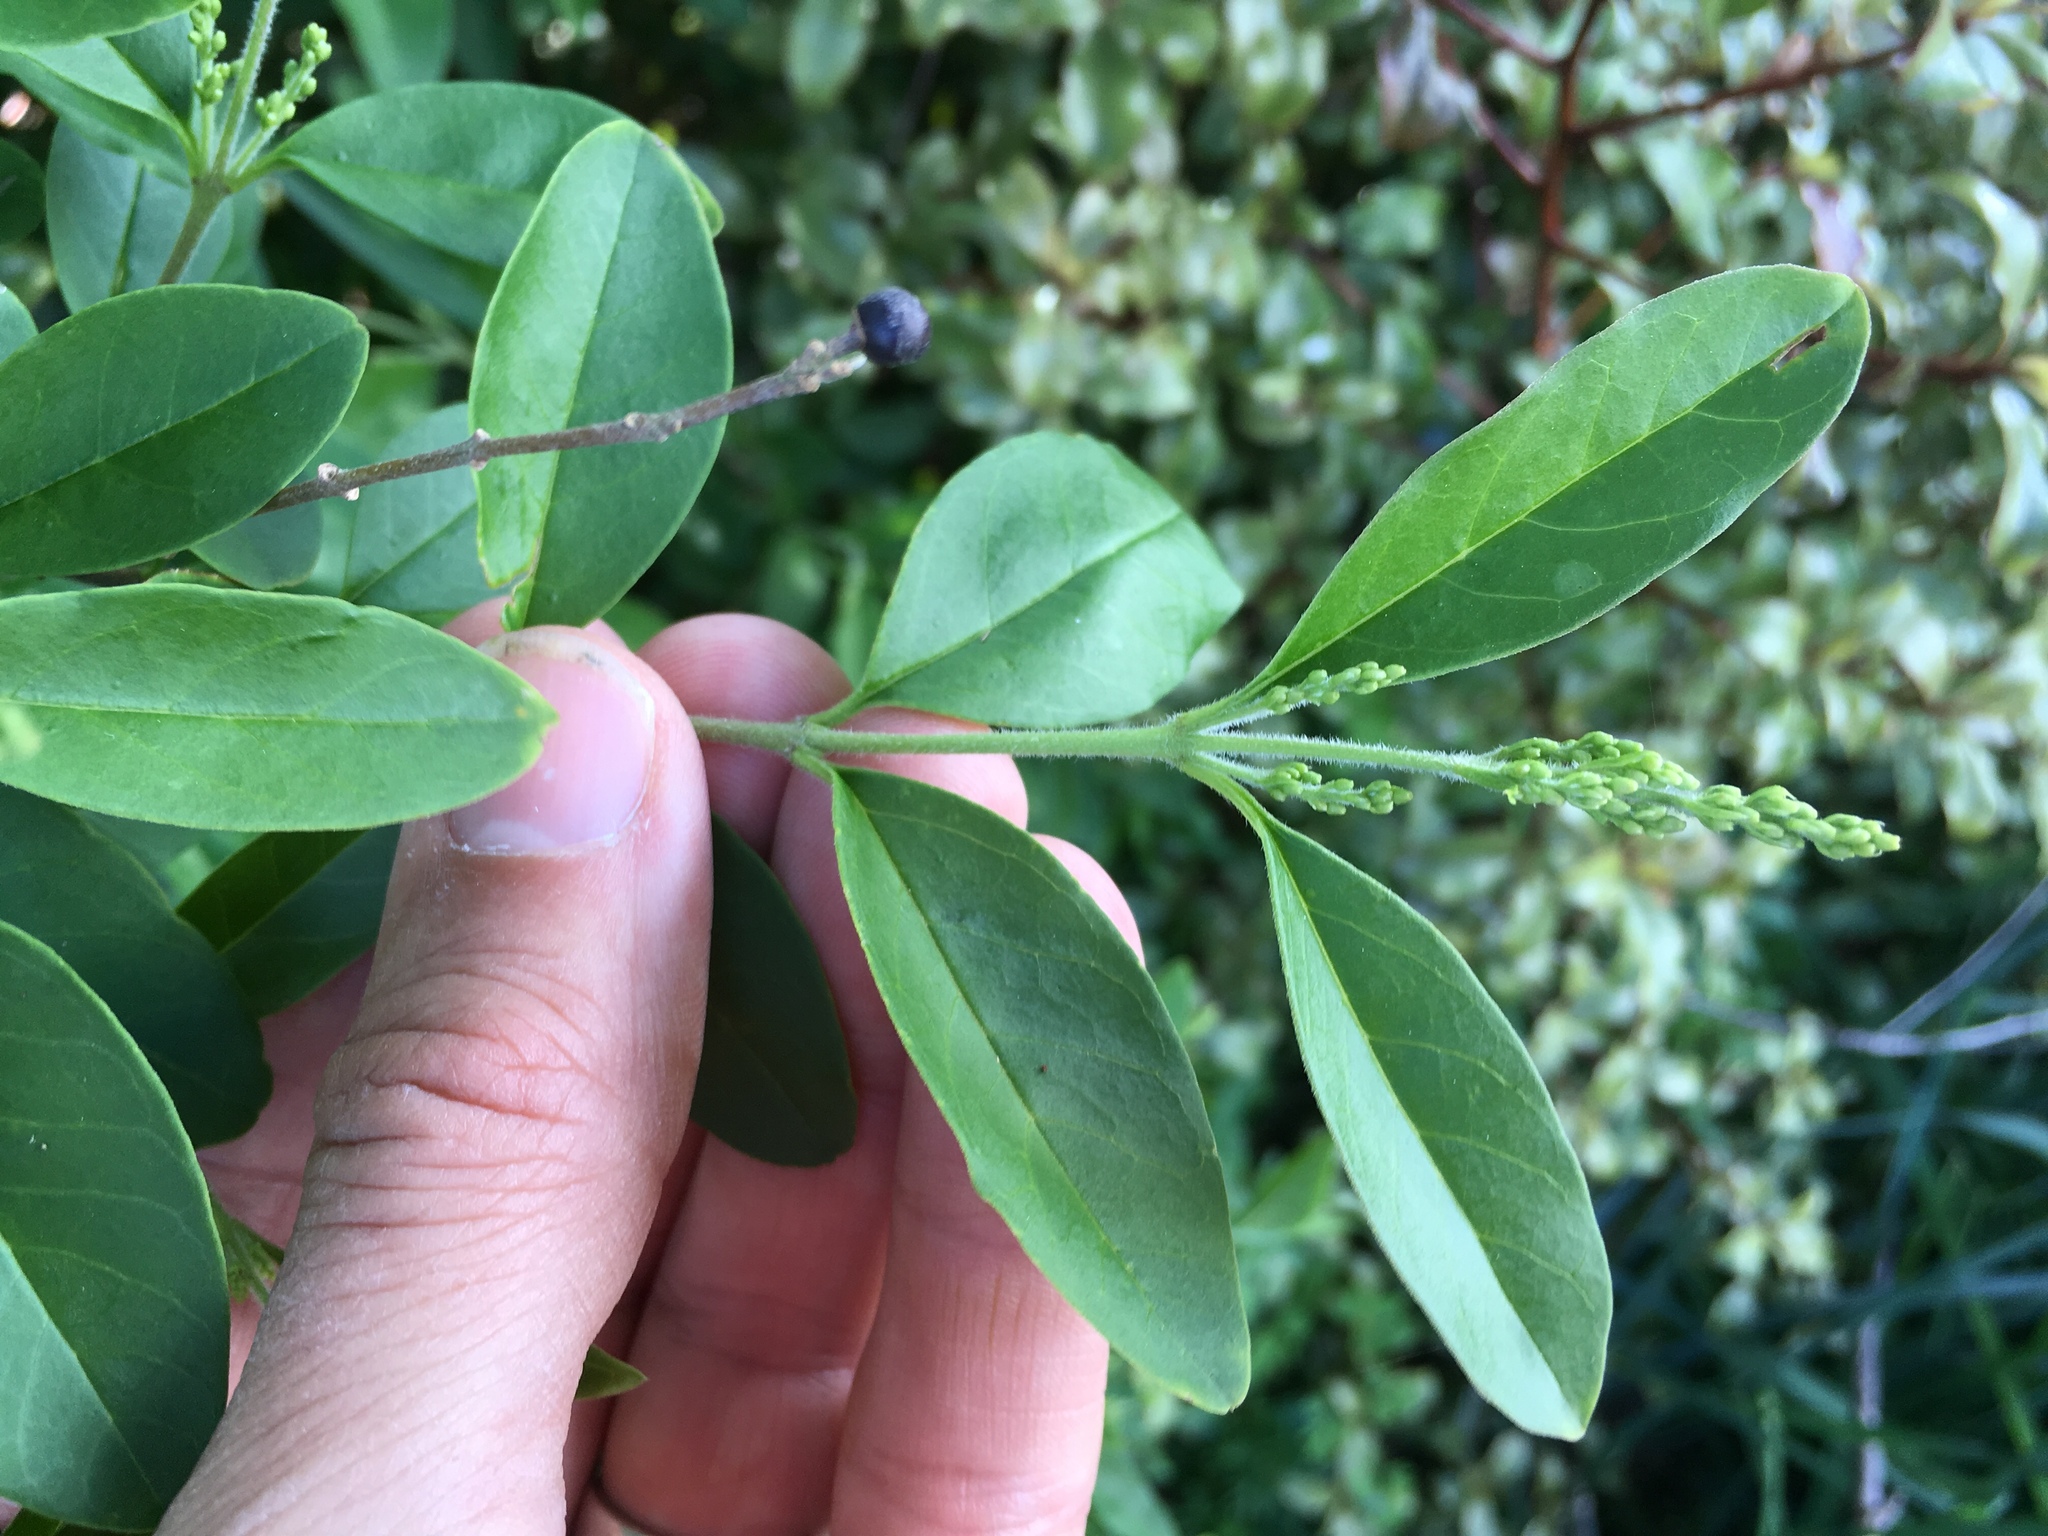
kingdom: Plantae
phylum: Tracheophyta
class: Magnoliopsida
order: Lamiales
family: Oleaceae
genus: Ligustrum
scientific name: Ligustrum sinense
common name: Chinese privet
